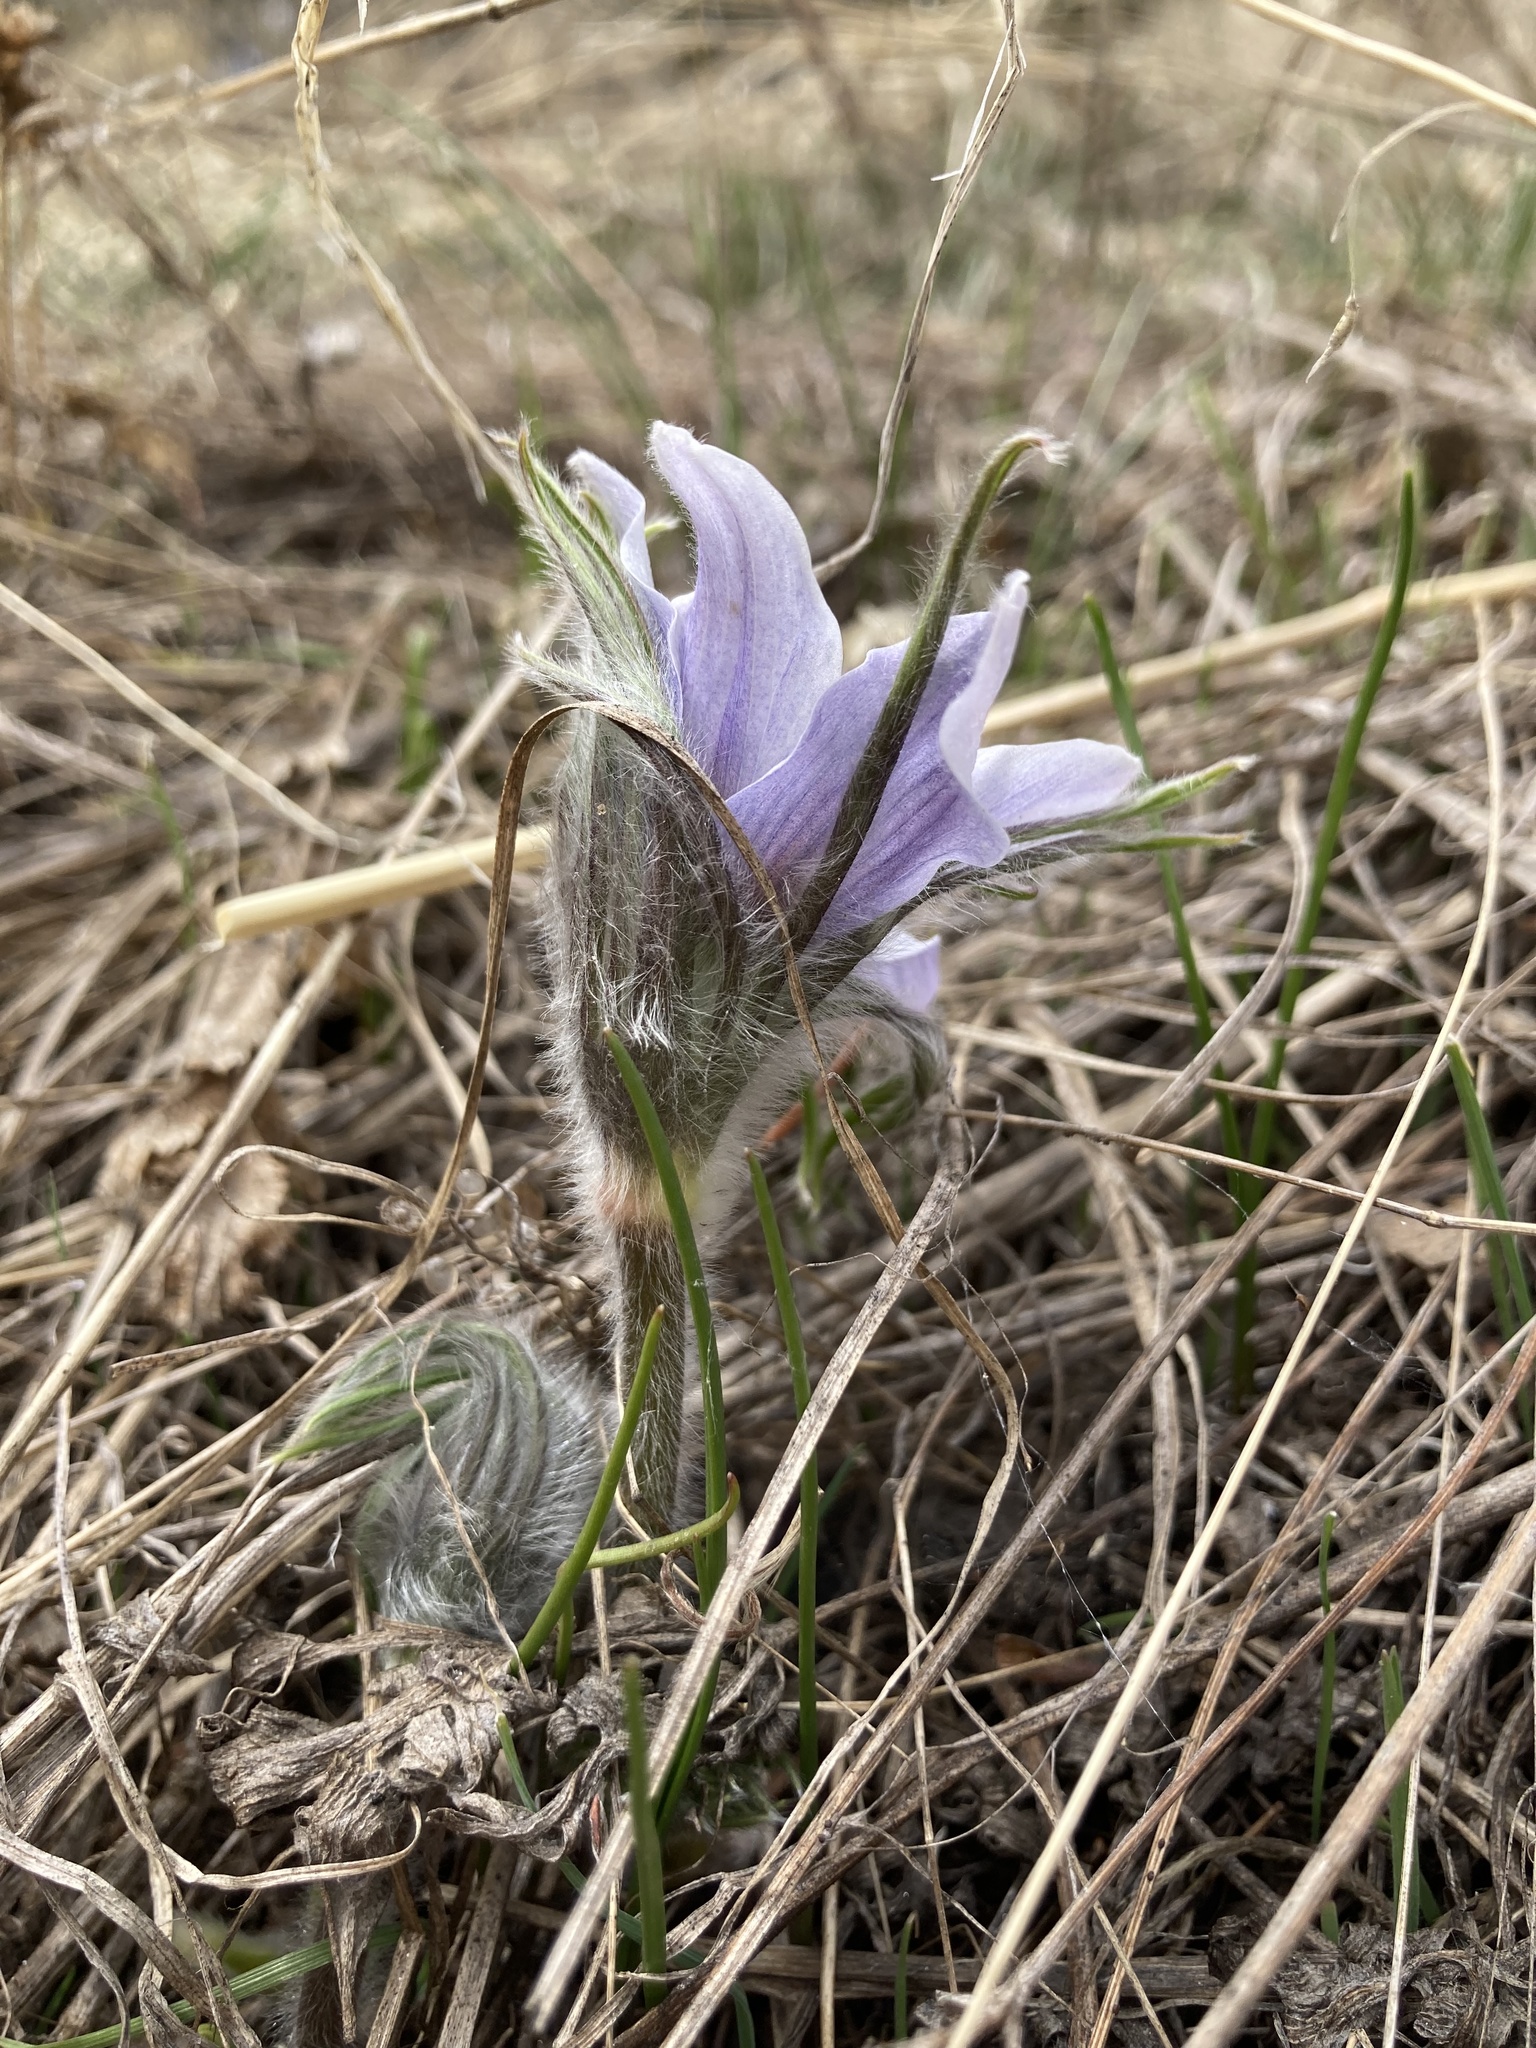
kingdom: Plantae
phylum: Tracheophyta
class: Magnoliopsida
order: Ranunculales
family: Ranunculaceae
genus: Pulsatilla
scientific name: Pulsatilla nuttalliana
